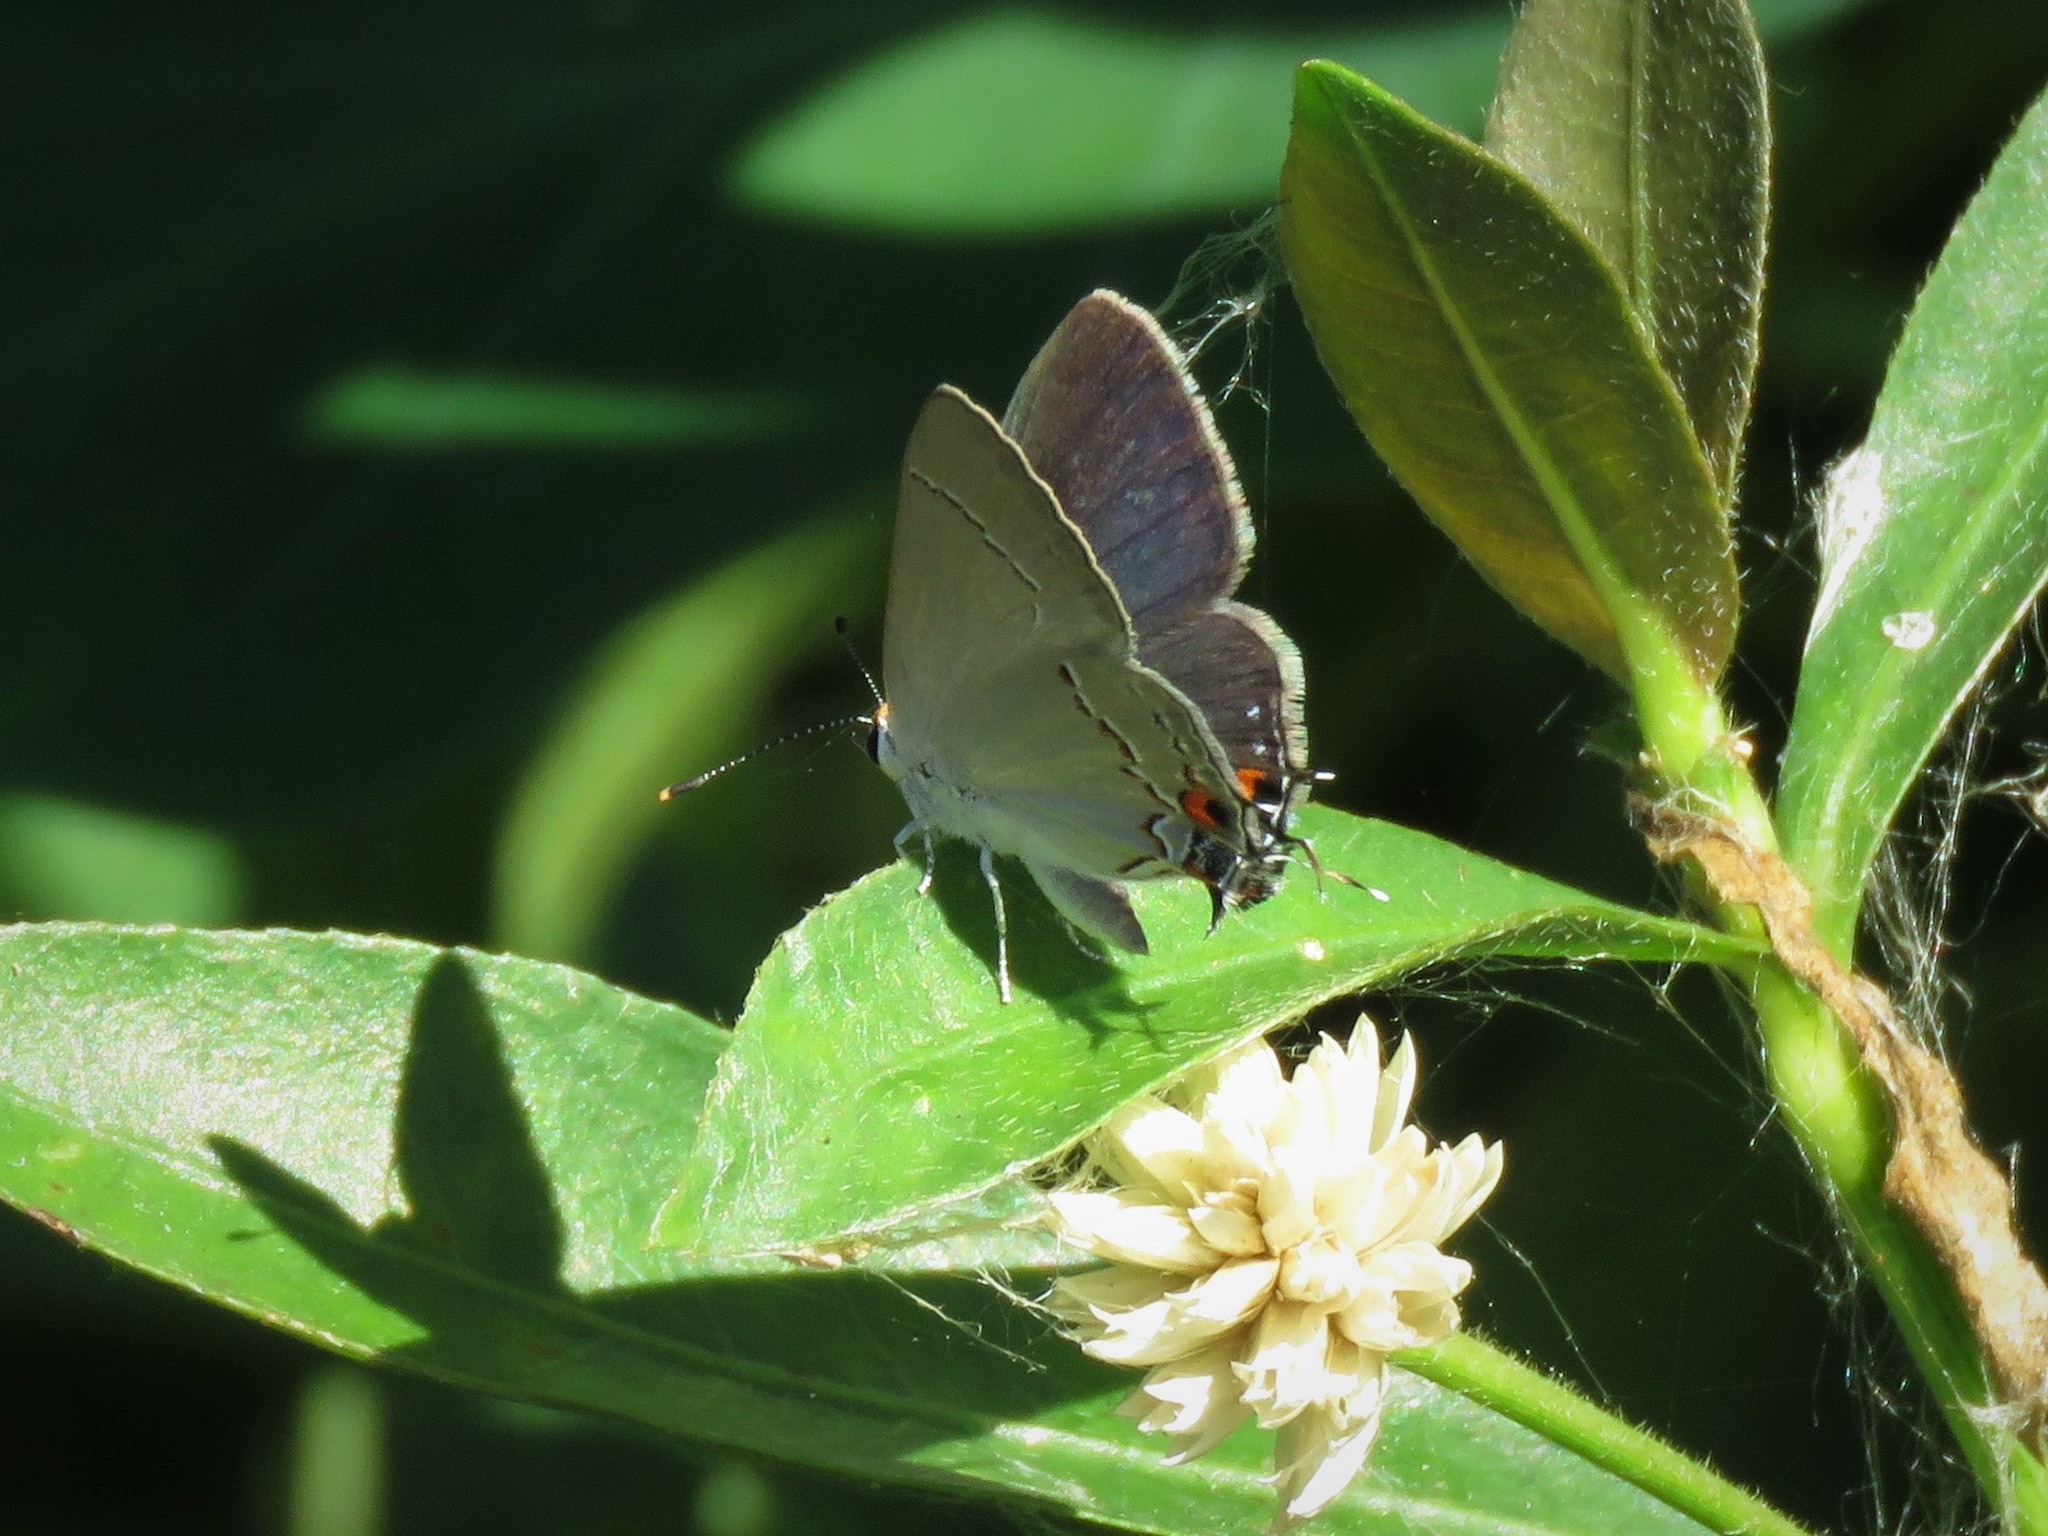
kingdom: Animalia
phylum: Arthropoda
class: Insecta
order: Lepidoptera
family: Lycaenidae
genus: Strymon
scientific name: Strymon melinus
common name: Gray hairstreak
